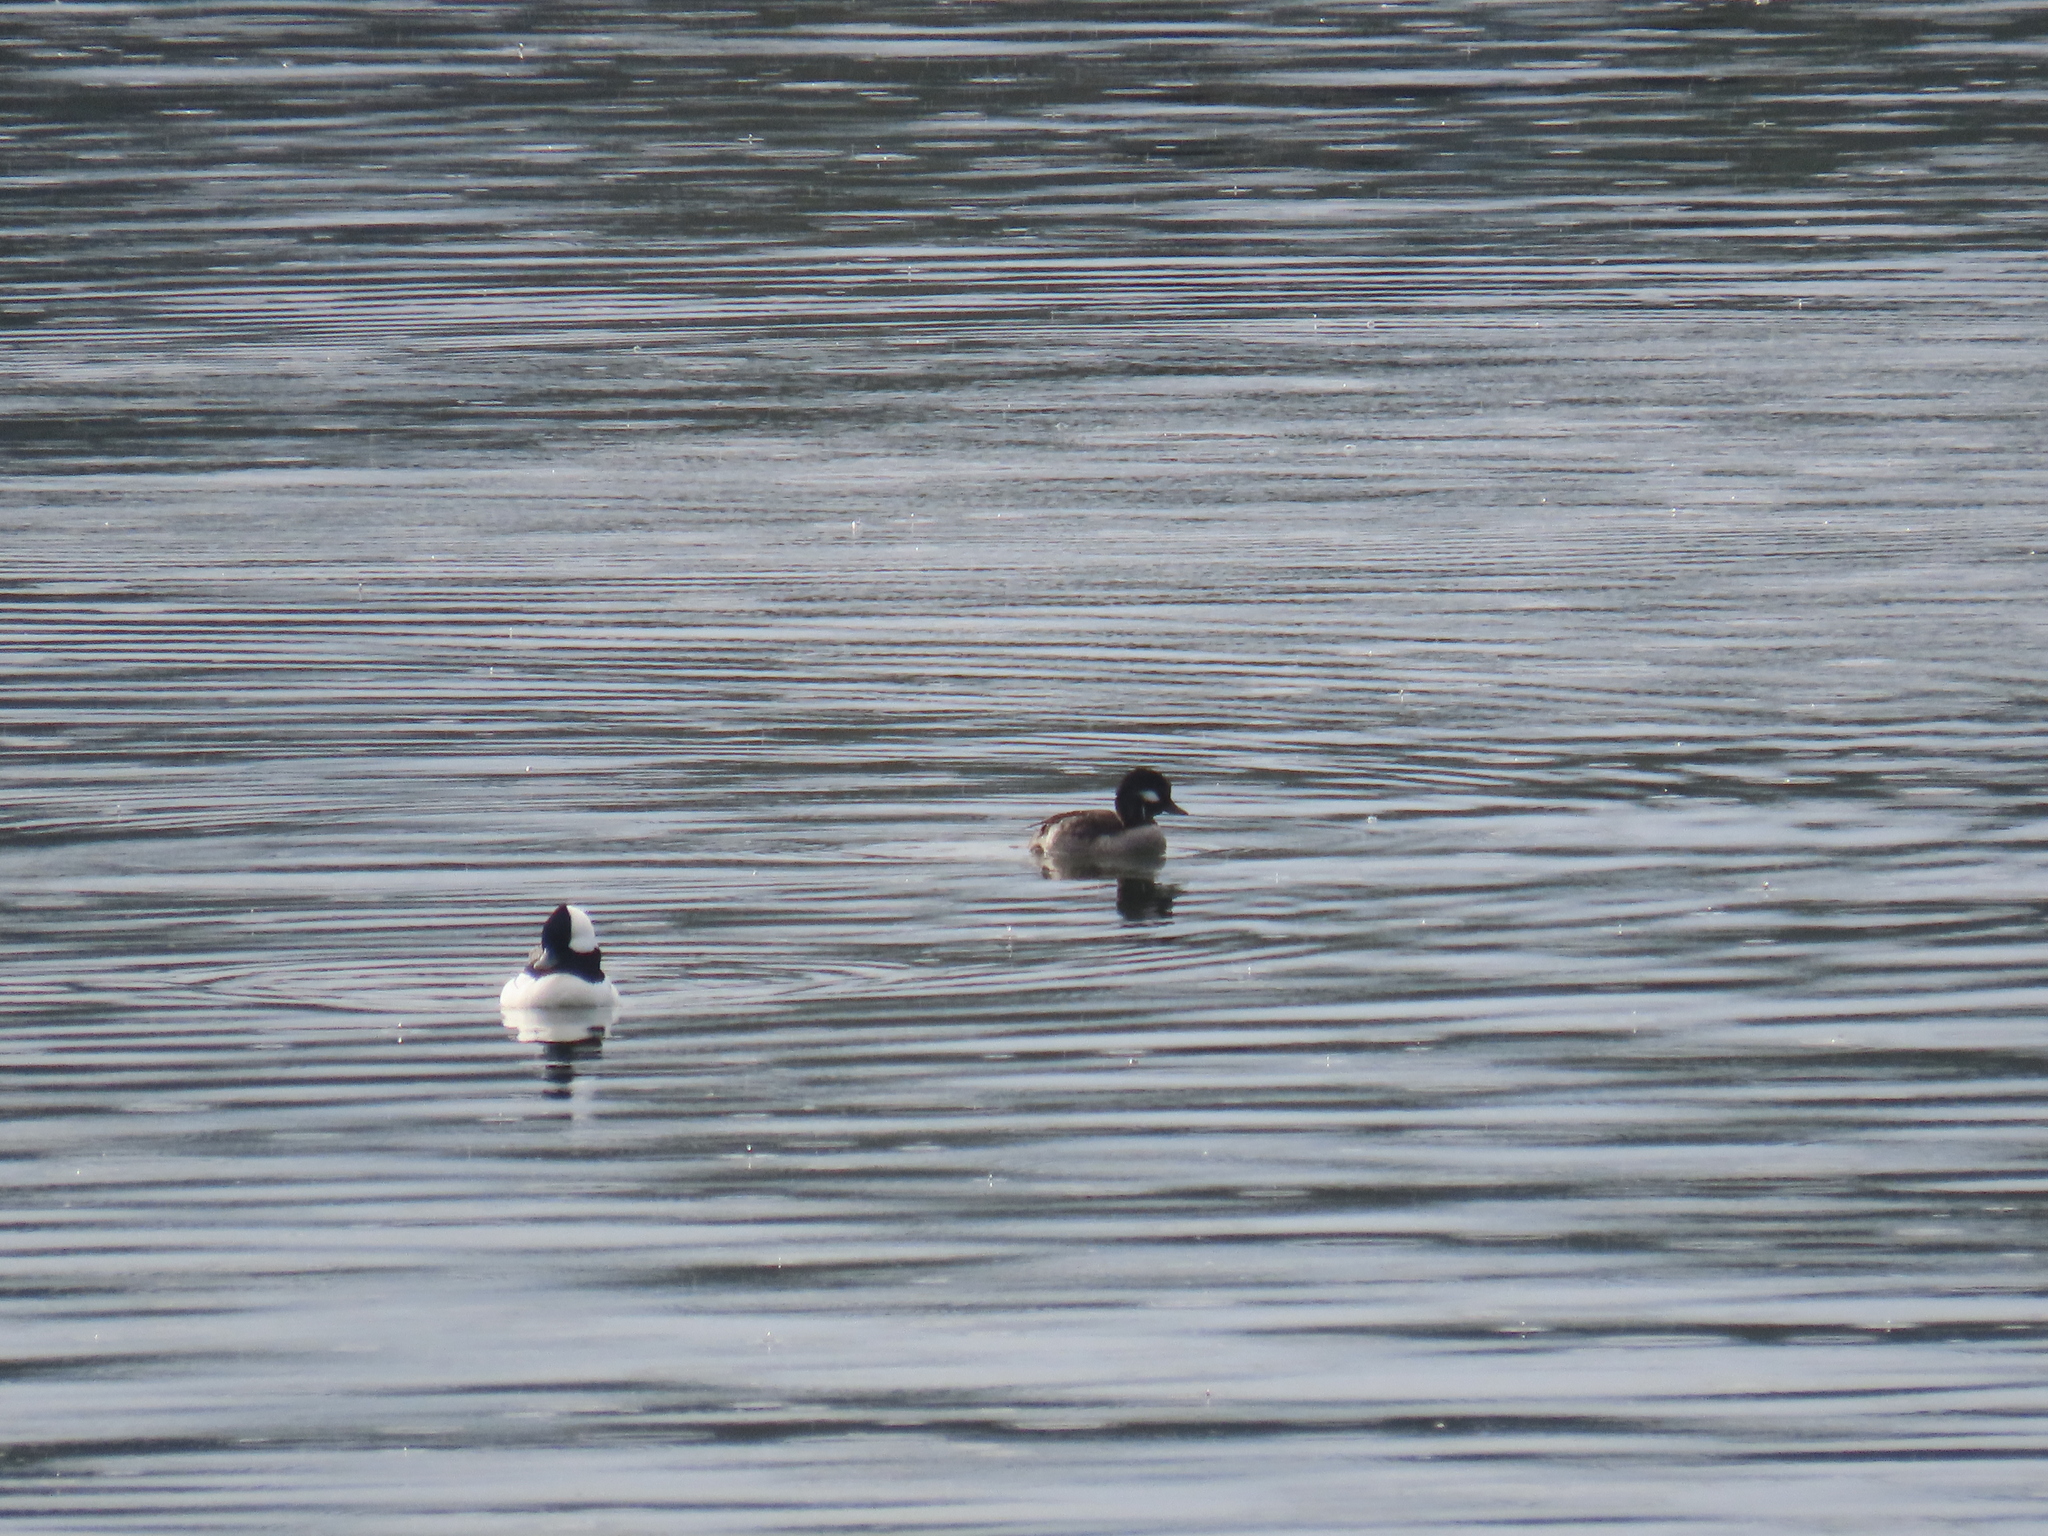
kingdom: Animalia
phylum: Chordata
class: Aves
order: Anseriformes
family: Anatidae
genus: Bucephala
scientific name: Bucephala albeola
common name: Bufflehead
